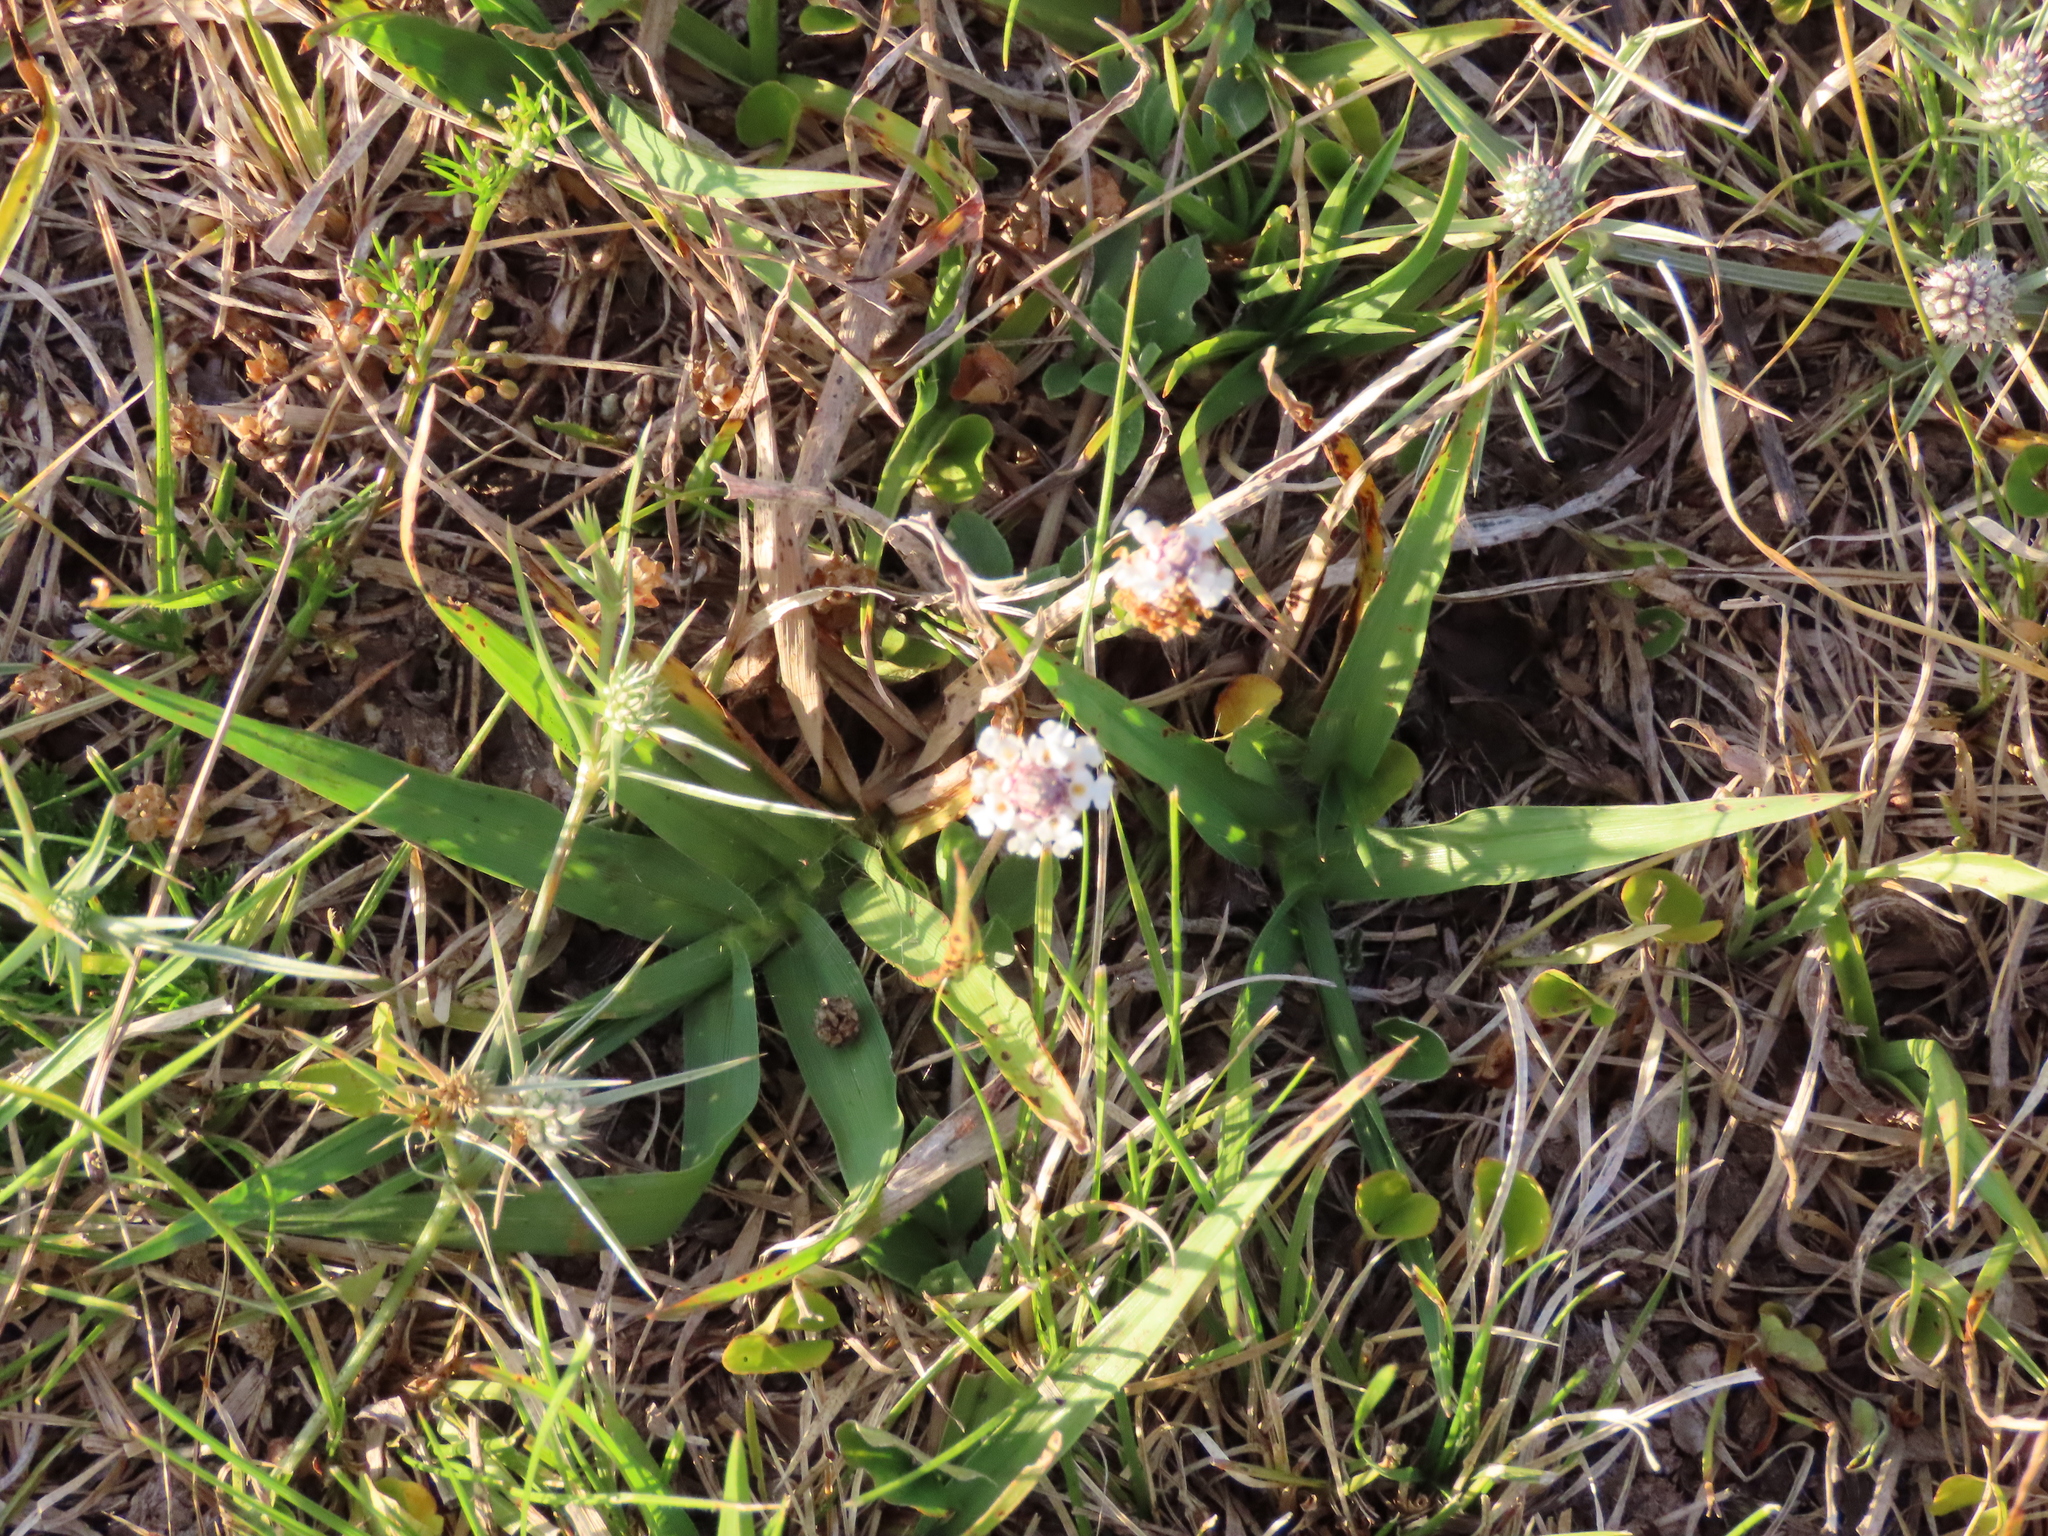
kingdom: Plantae
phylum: Tracheophyta
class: Magnoliopsida
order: Lamiales
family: Verbenaceae
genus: Phyla
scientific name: Phyla nodiflora
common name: Frogfruit
